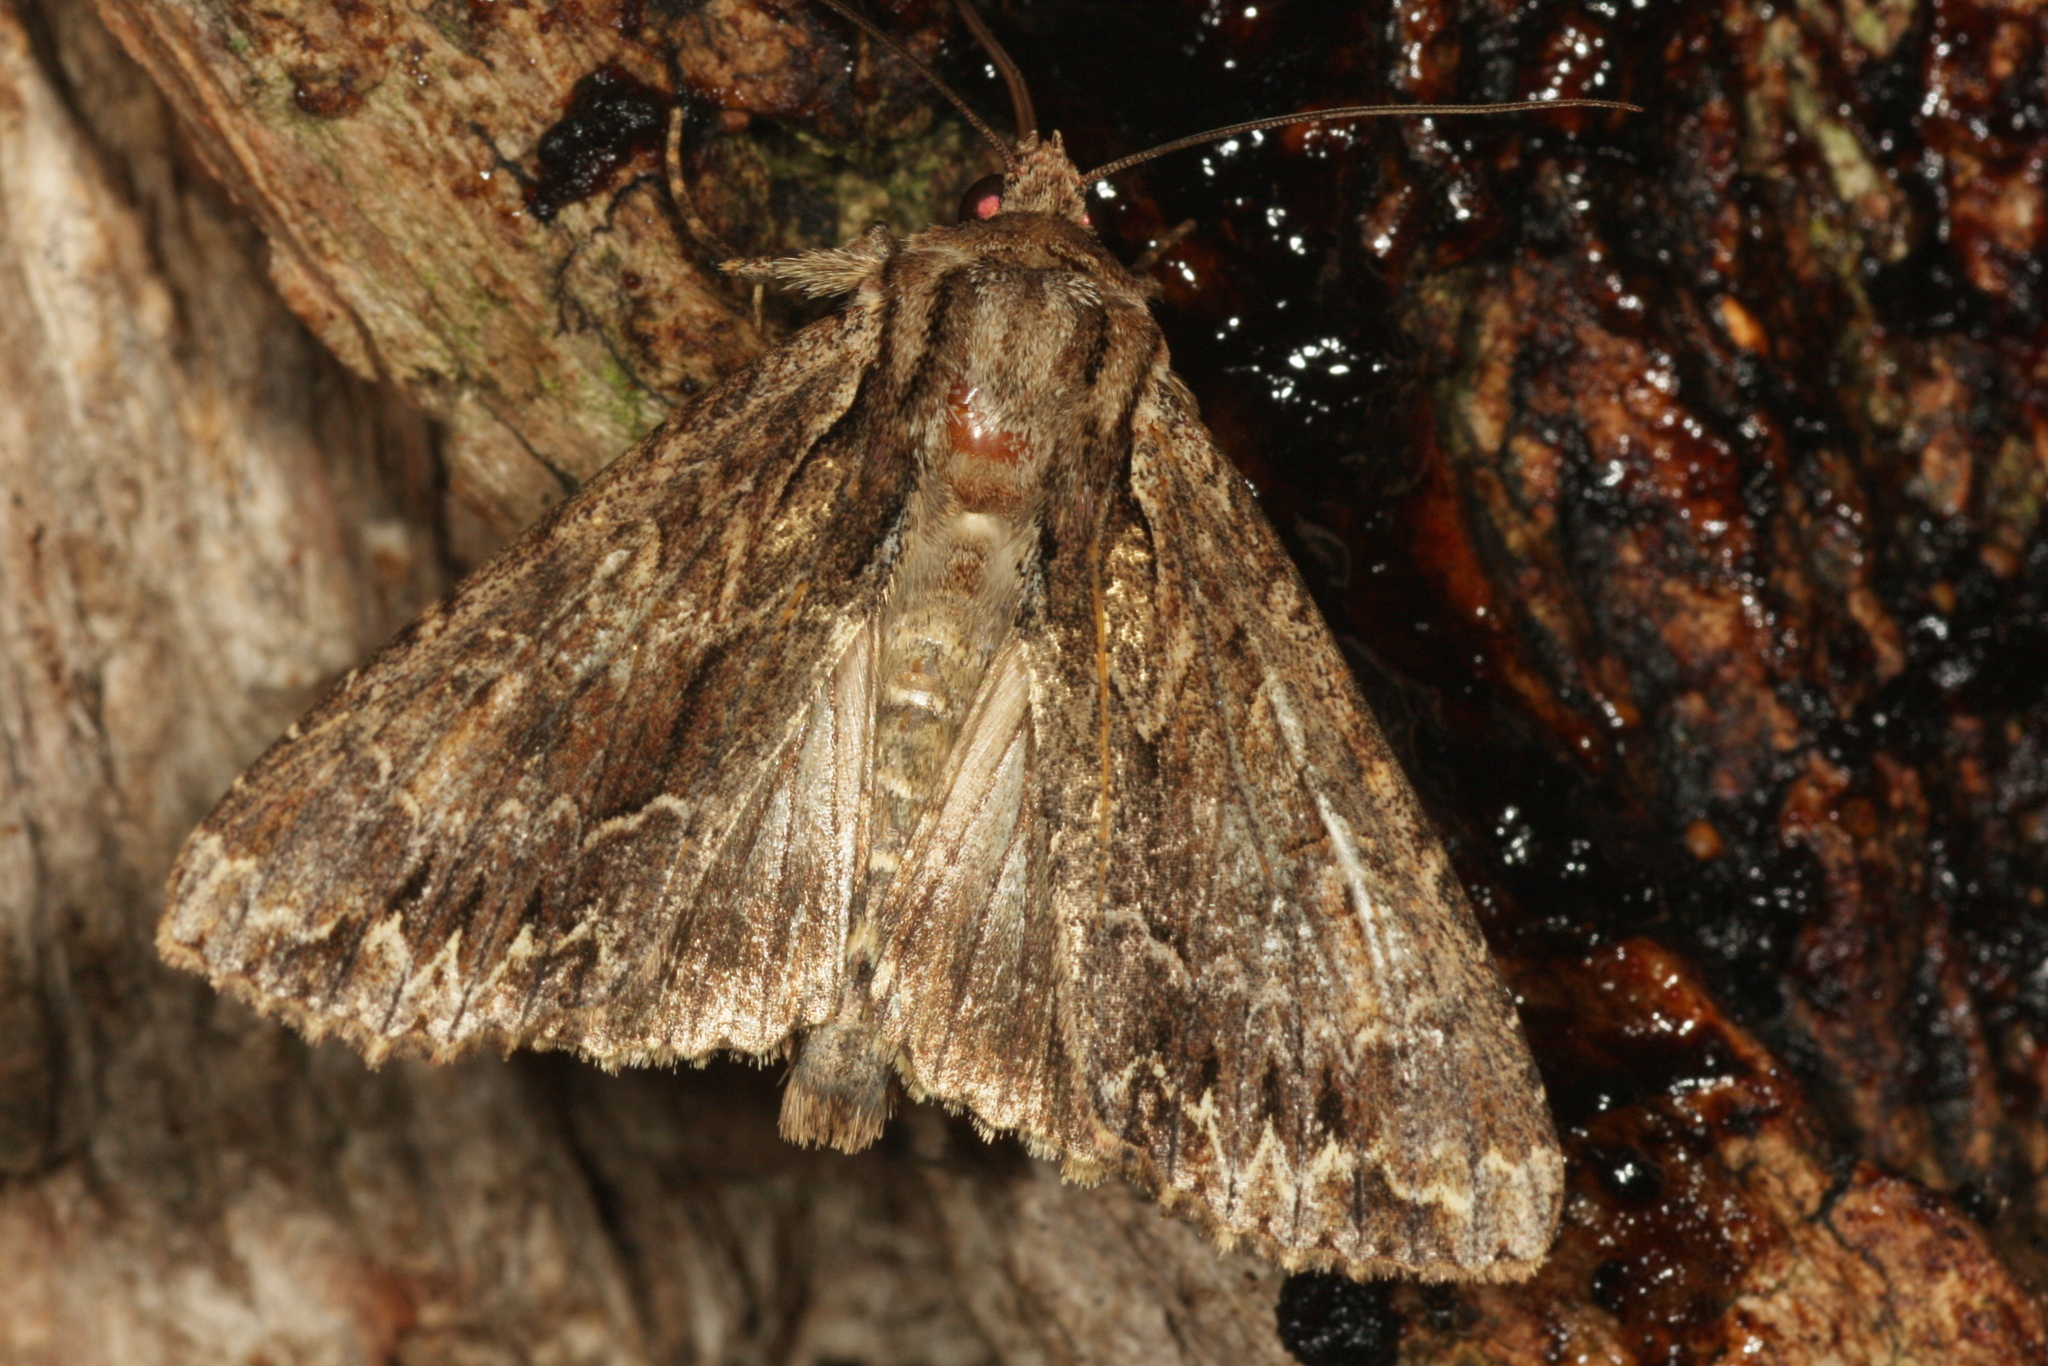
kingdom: Animalia
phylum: Arthropoda
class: Insecta
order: Lepidoptera
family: Noctuidae
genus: Apamea
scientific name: Apamea monoglypha
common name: Dark arches
